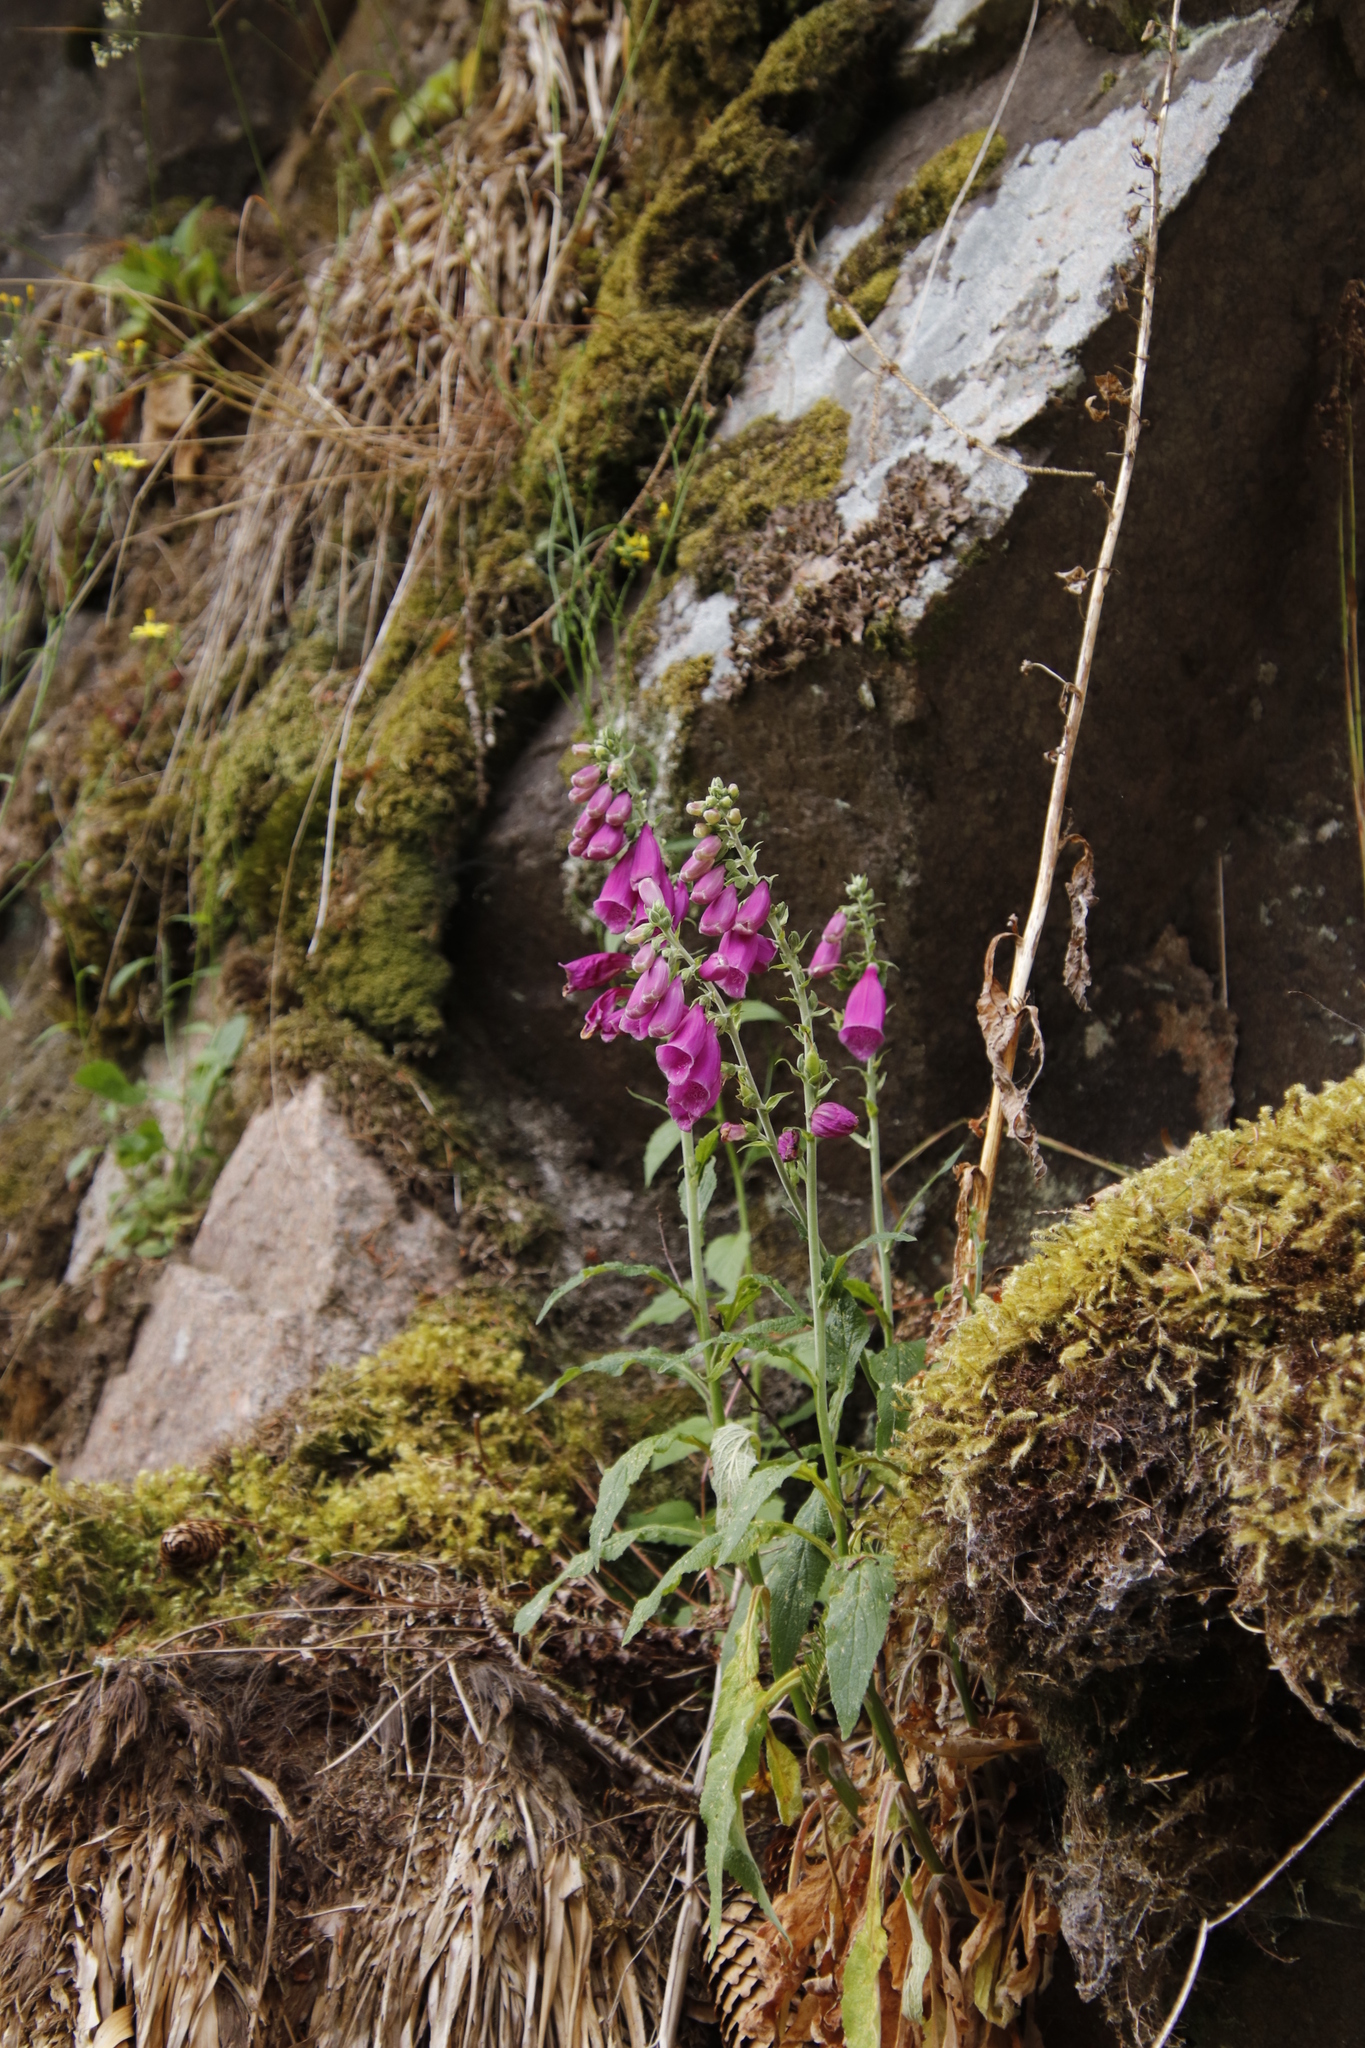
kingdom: Plantae
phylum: Tracheophyta
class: Magnoliopsida
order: Lamiales
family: Plantaginaceae
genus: Digitalis
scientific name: Digitalis purpurea
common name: Foxglove
